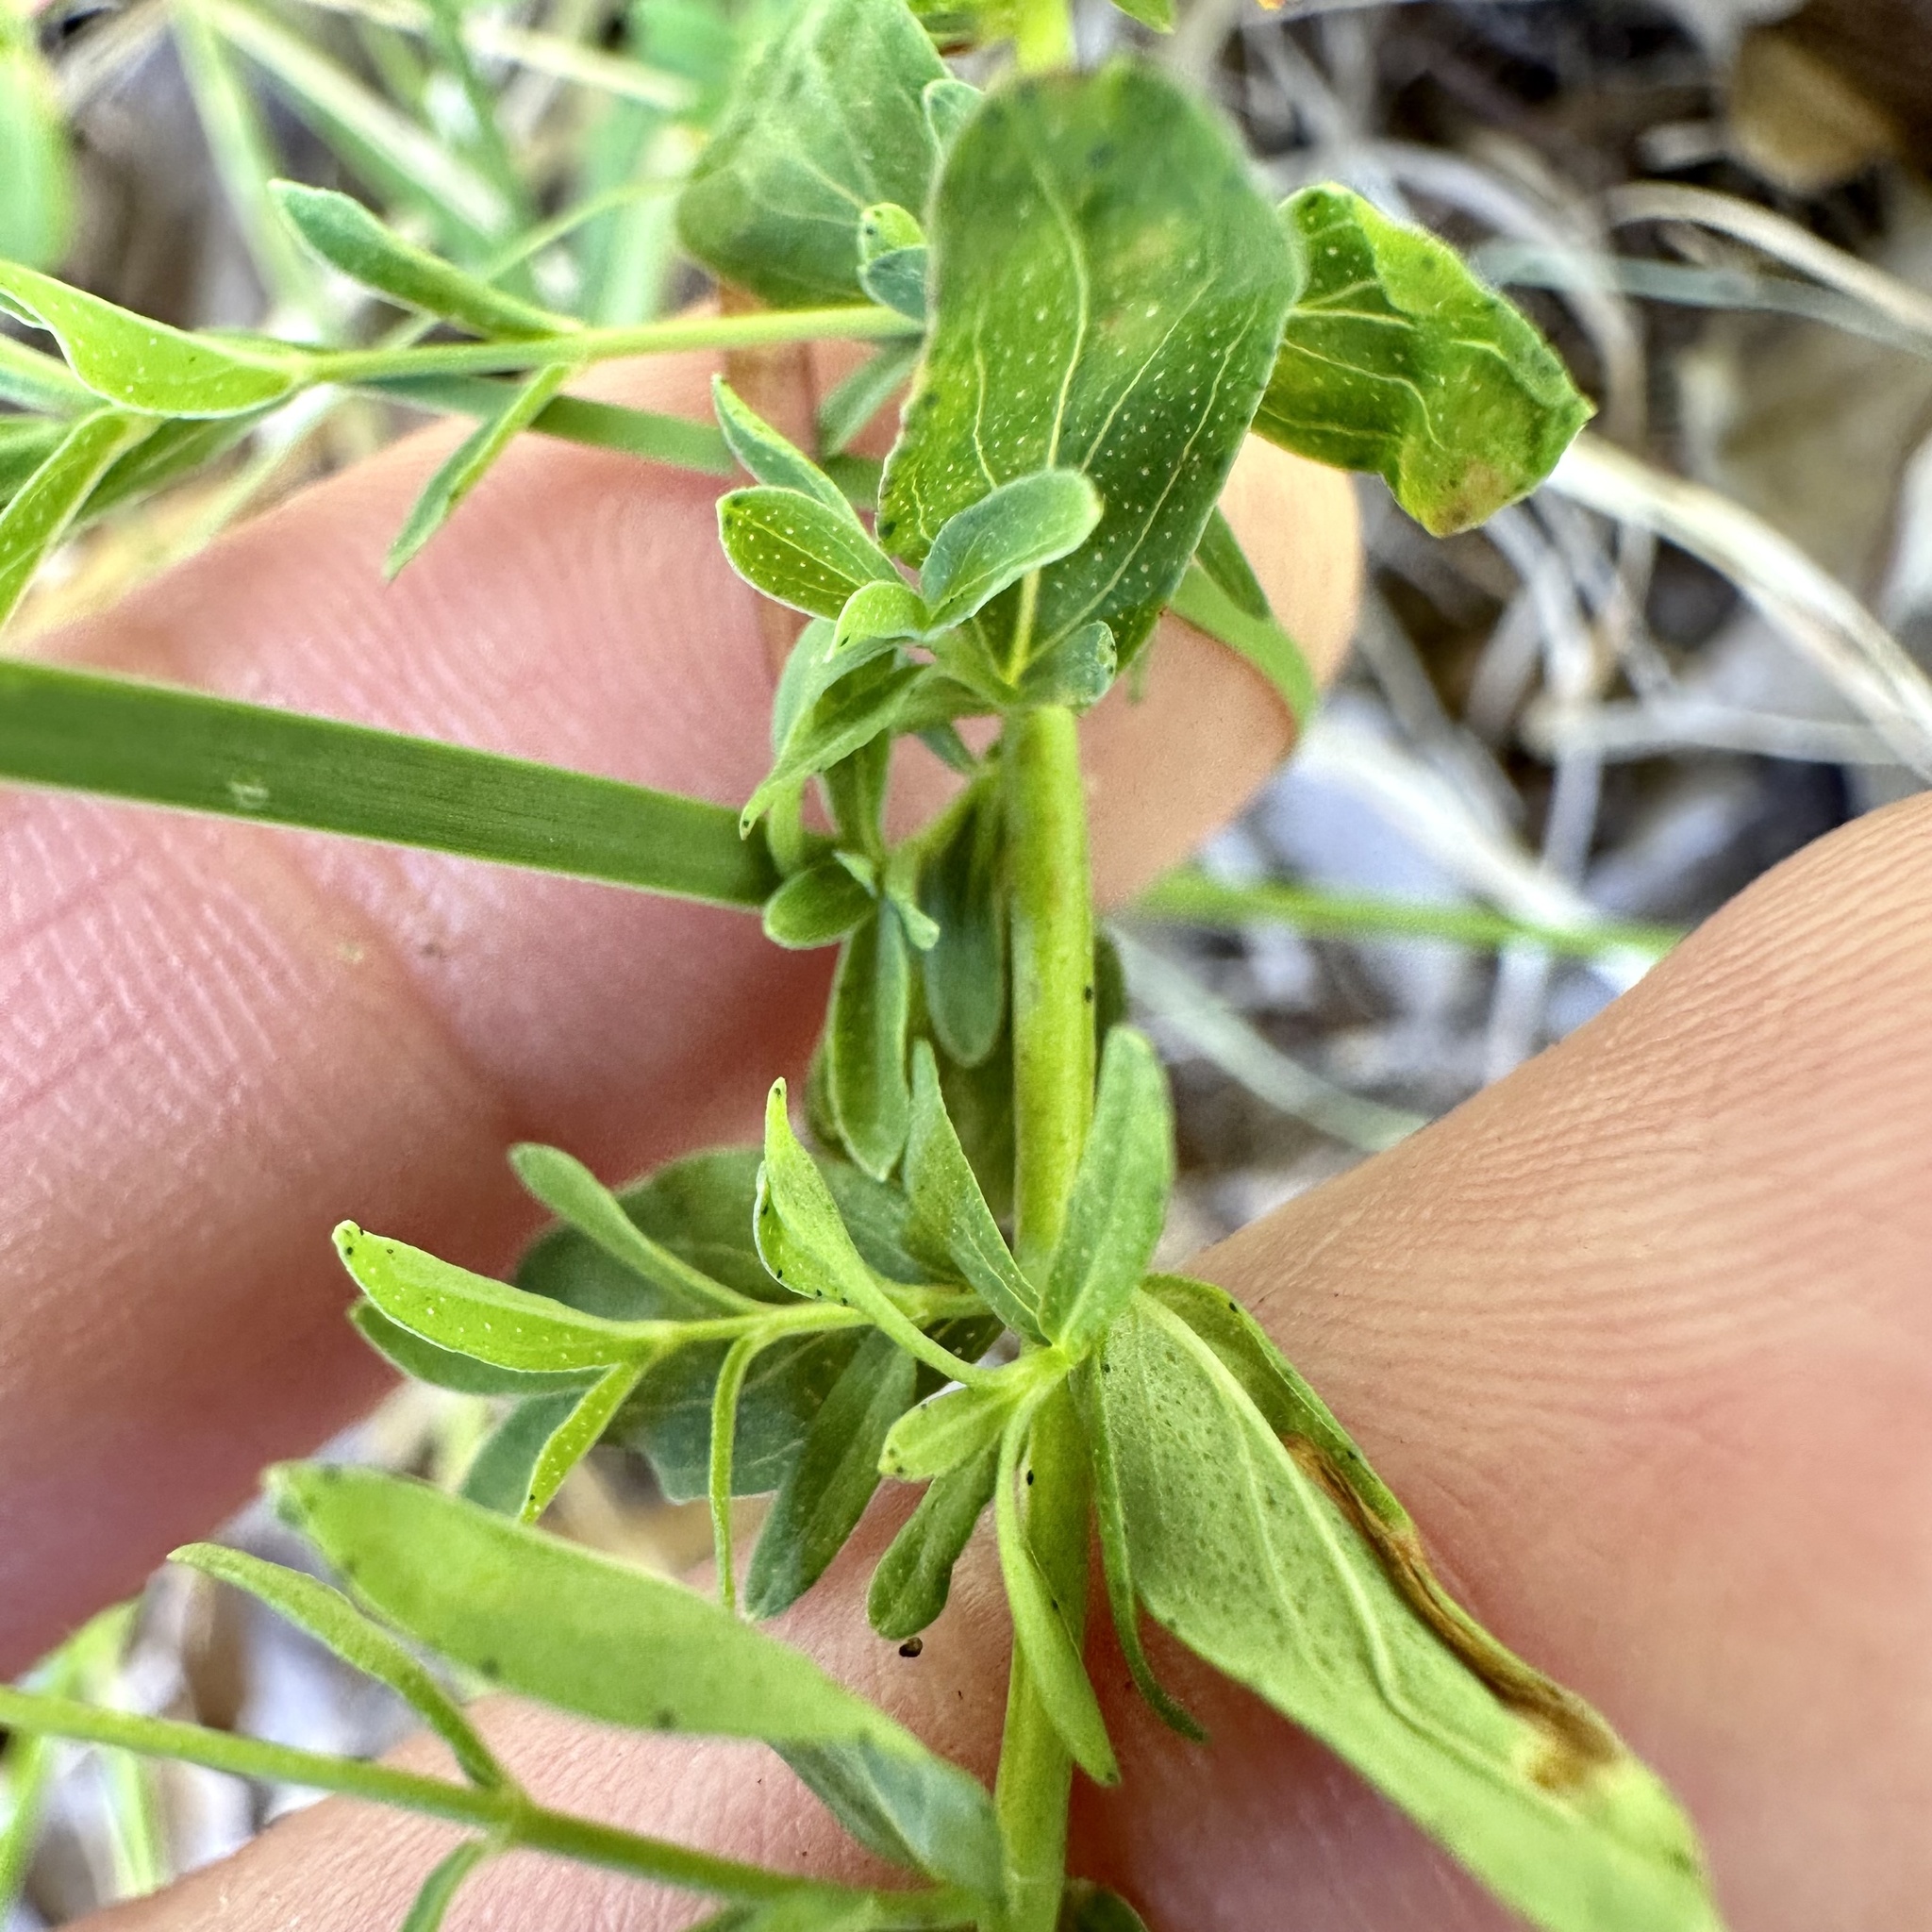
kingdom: Plantae
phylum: Tracheophyta
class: Magnoliopsida
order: Malpighiales
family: Hypericaceae
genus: Hypericum
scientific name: Hypericum perforatum
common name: Common st. johnswort
